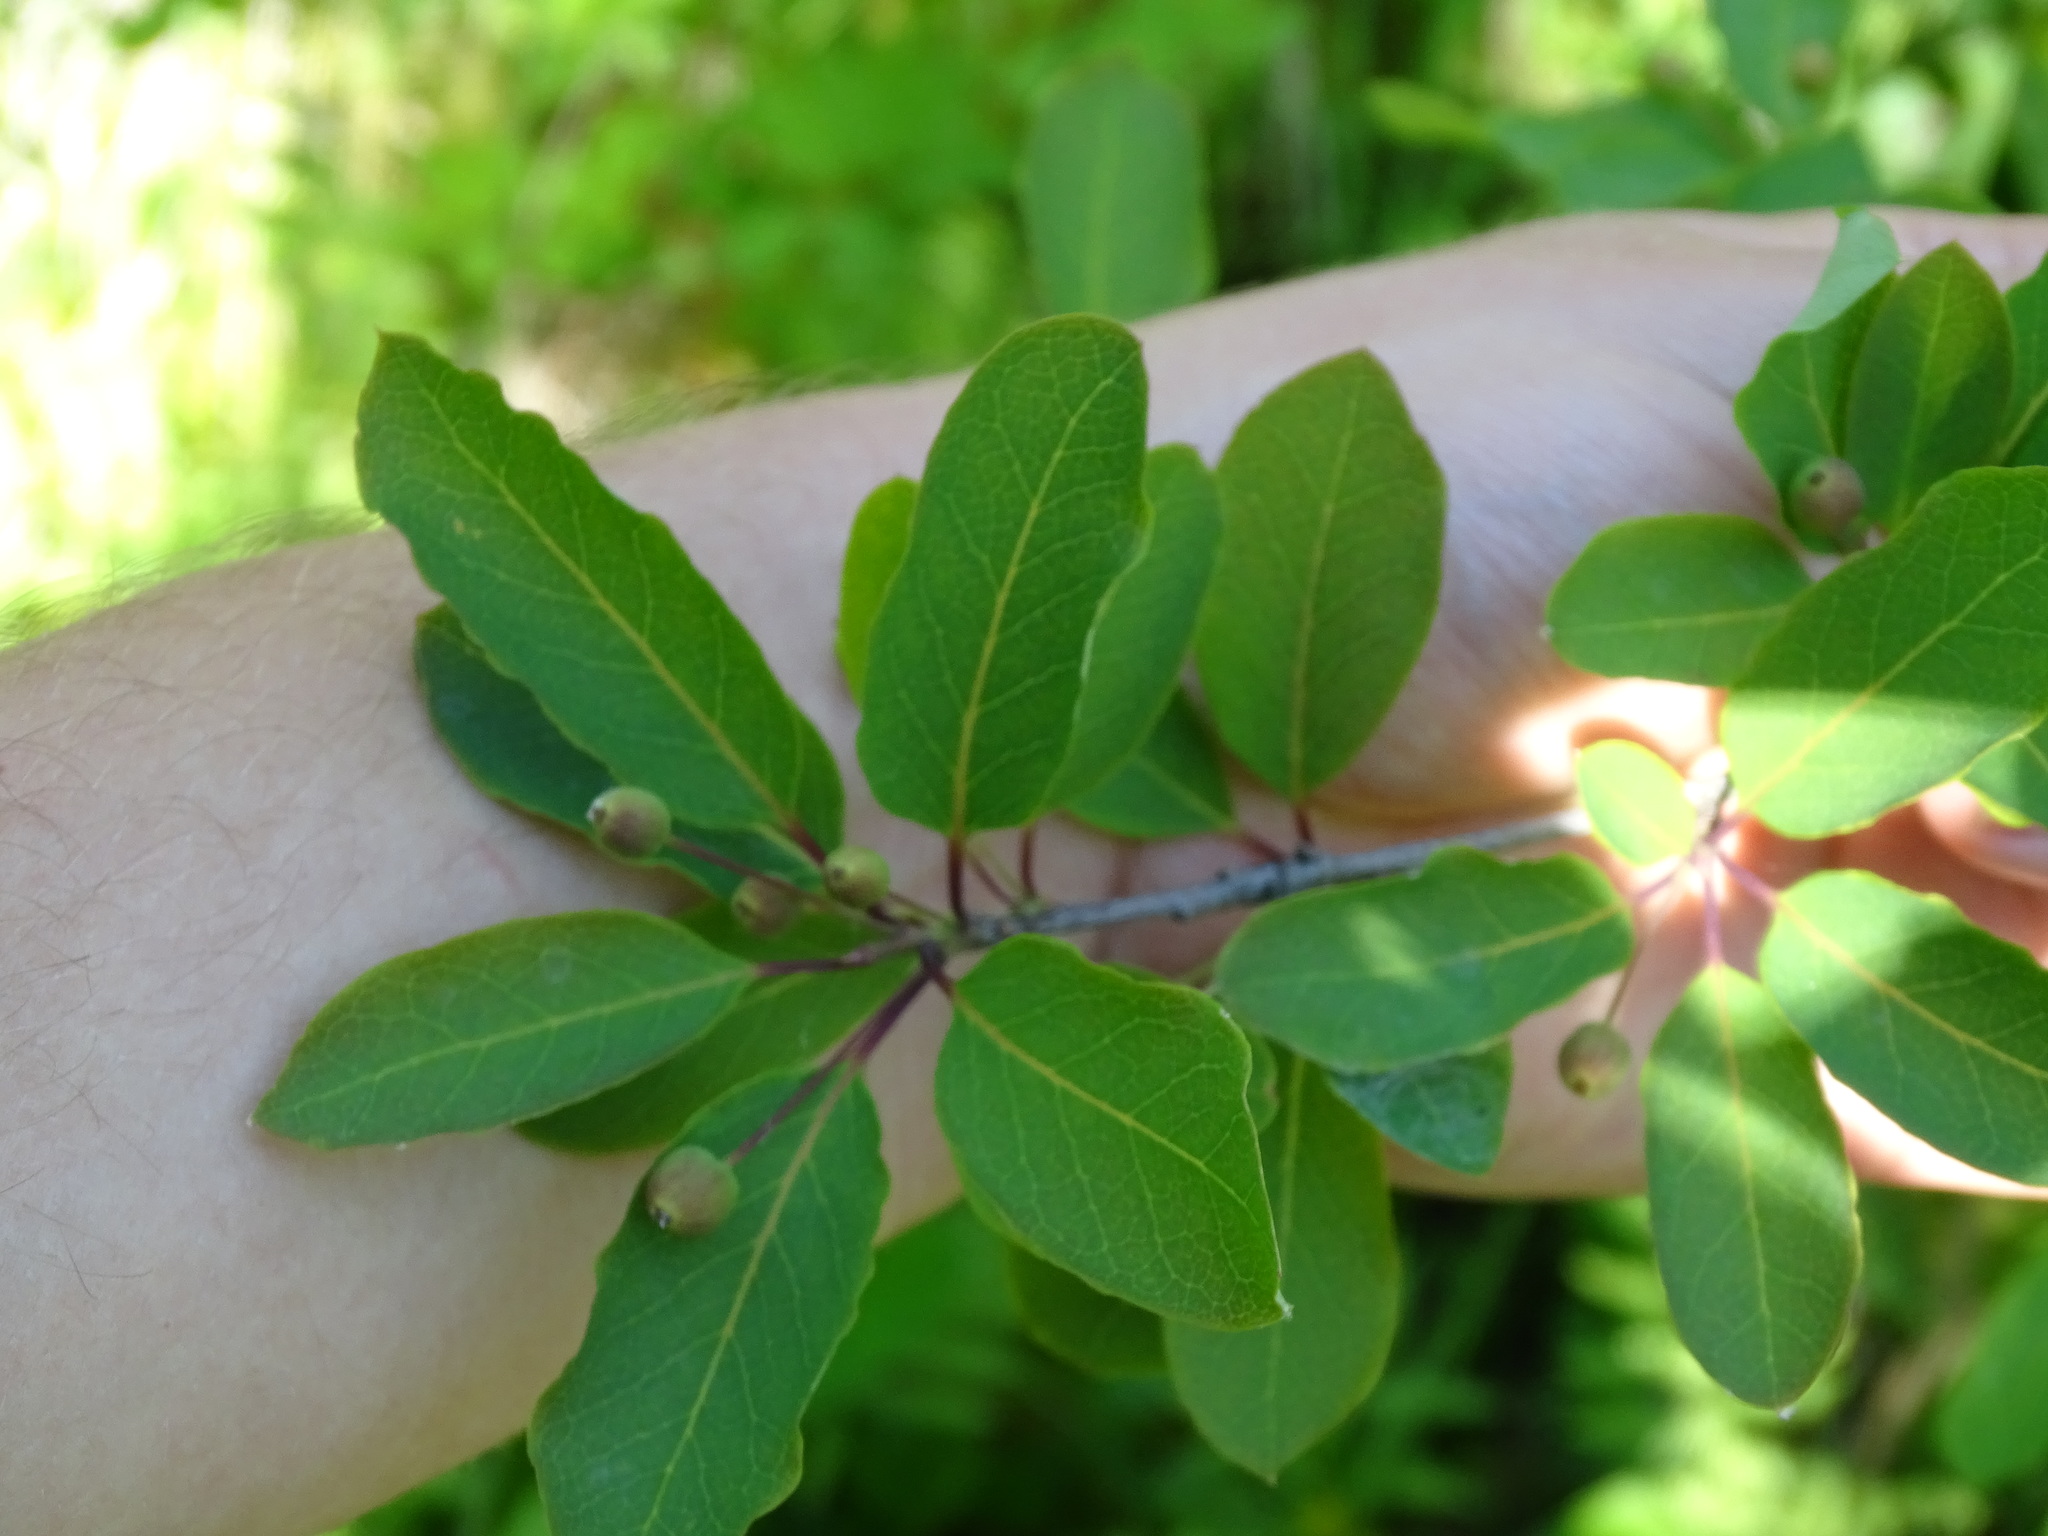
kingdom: Plantae
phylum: Tracheophyta
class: Magnoliopsida
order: Aquifoliales
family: Aquifoliaceae
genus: Ilex
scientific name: Ilex mucronata
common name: Catberry
